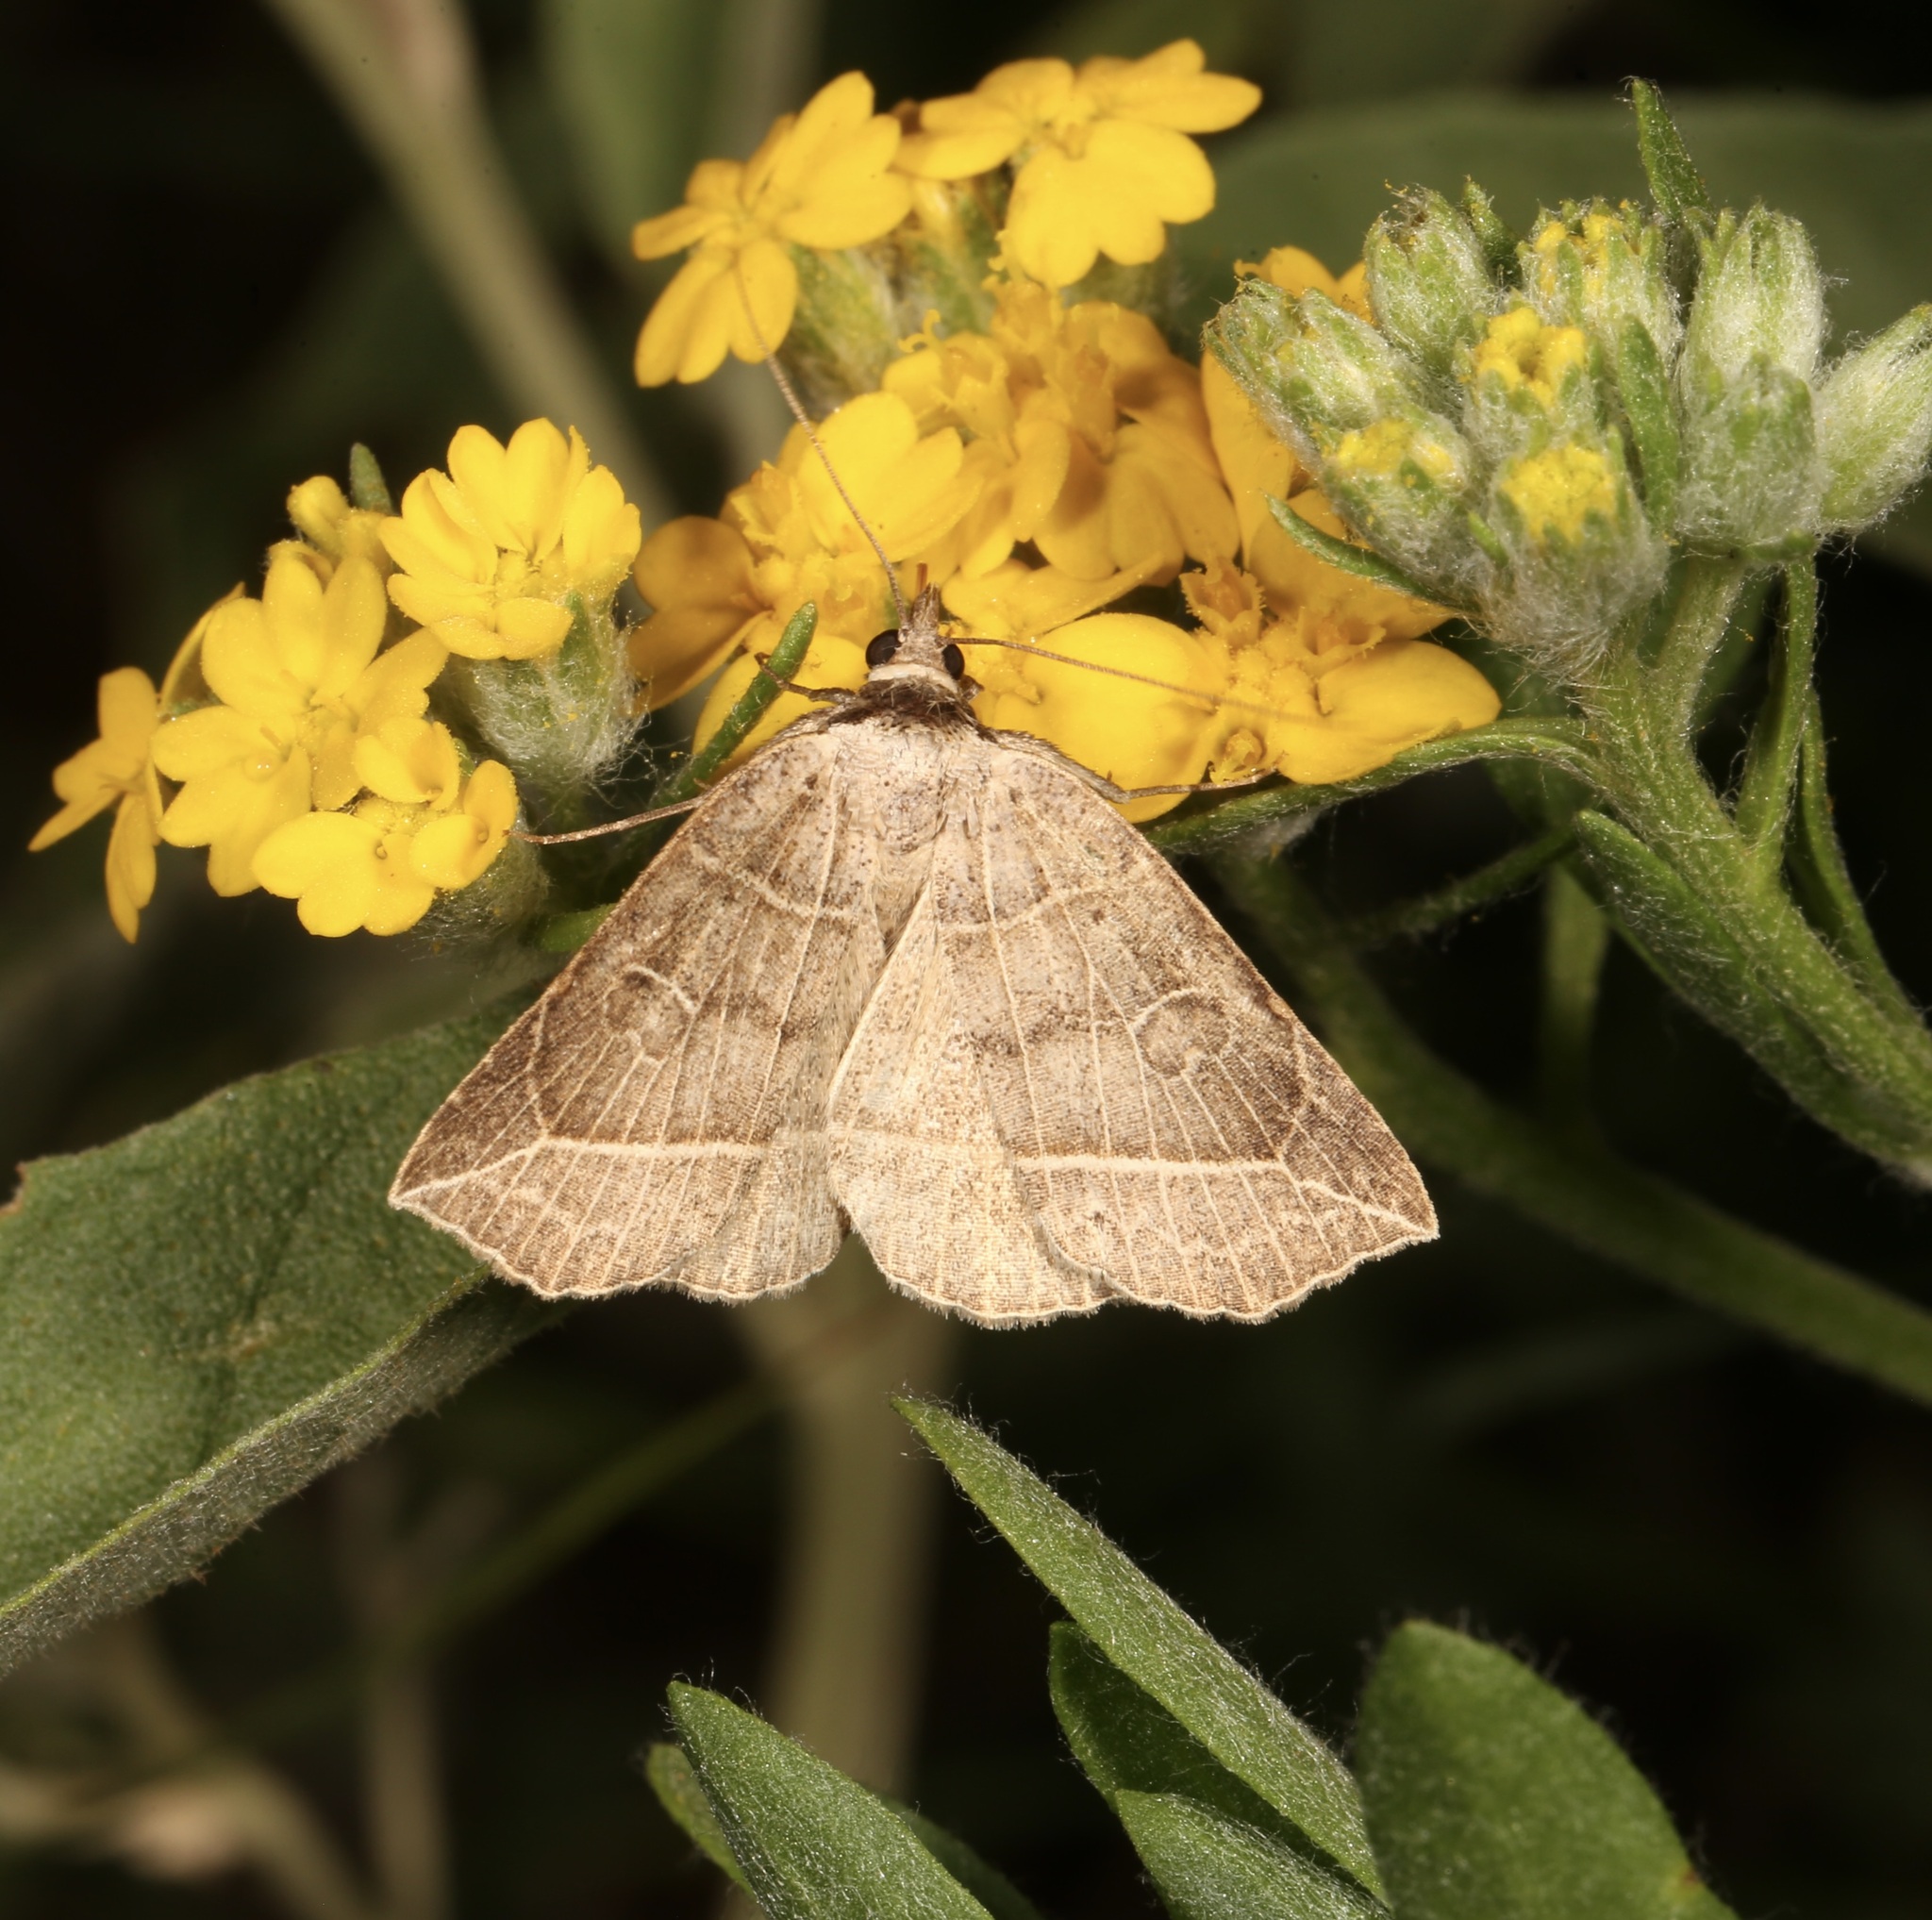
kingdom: Animalia
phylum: Arthropoda
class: Insecta
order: Lepidoptera
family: Erebidae
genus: Isogona
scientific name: Isogona tenuis
